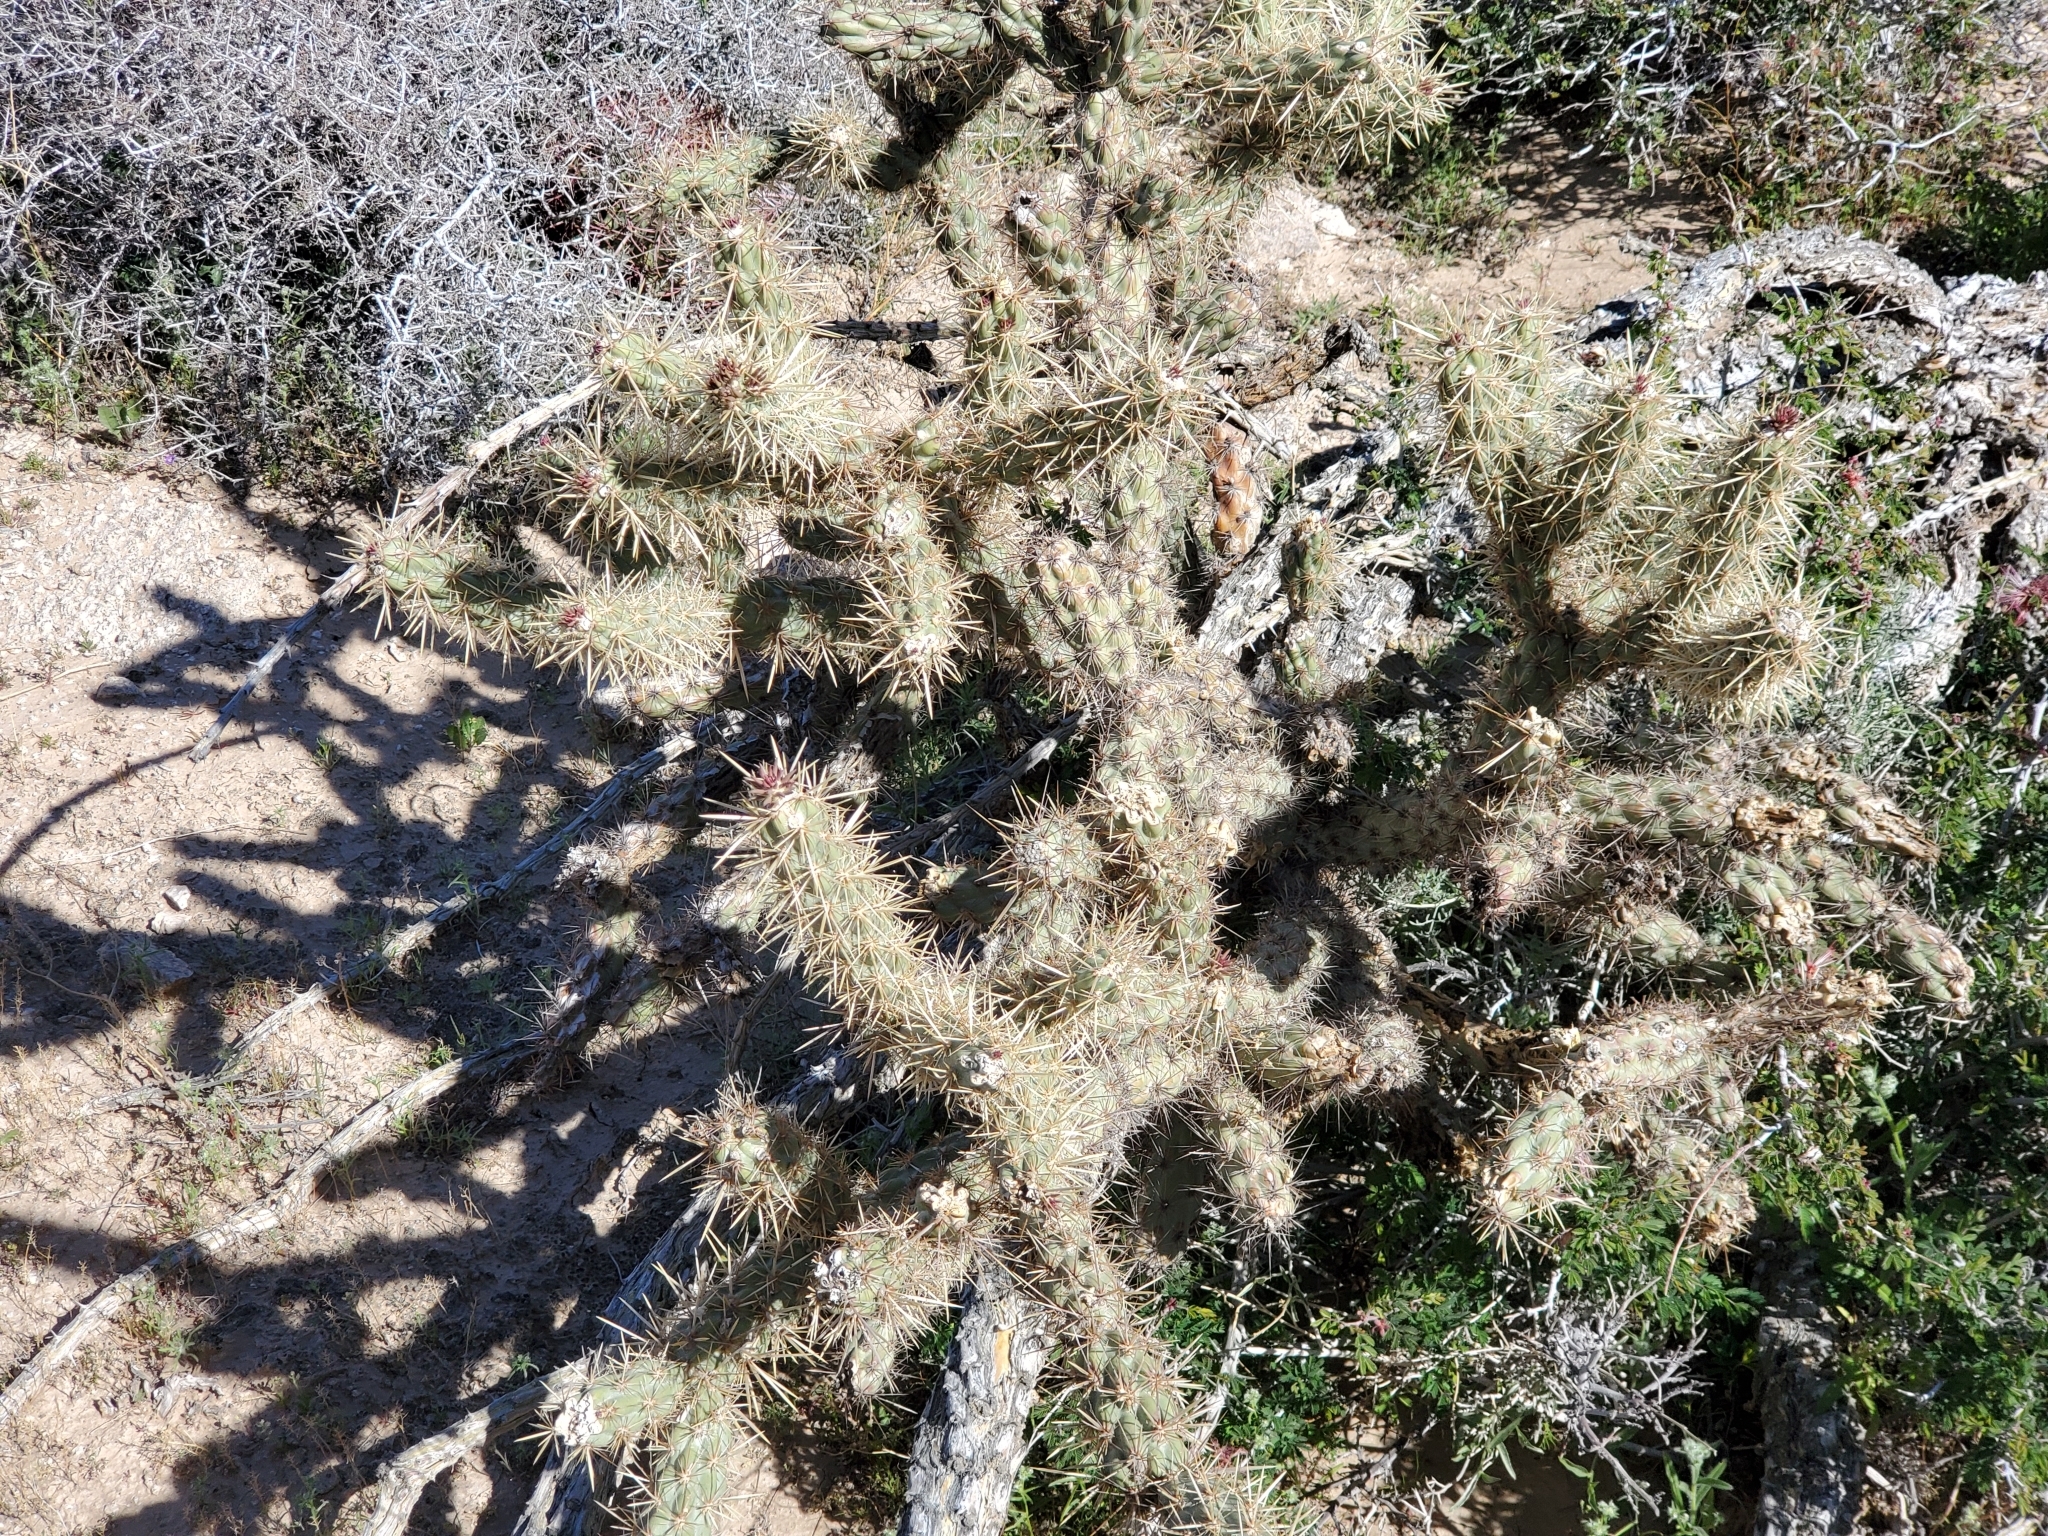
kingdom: Plantae
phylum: Tracheophyta
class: Magnoliopsida
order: Caryophyllales
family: Cactaceae
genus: Cylindropuntia
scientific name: Cylindropuntia acanthocarpa
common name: Buckhorn cholla
